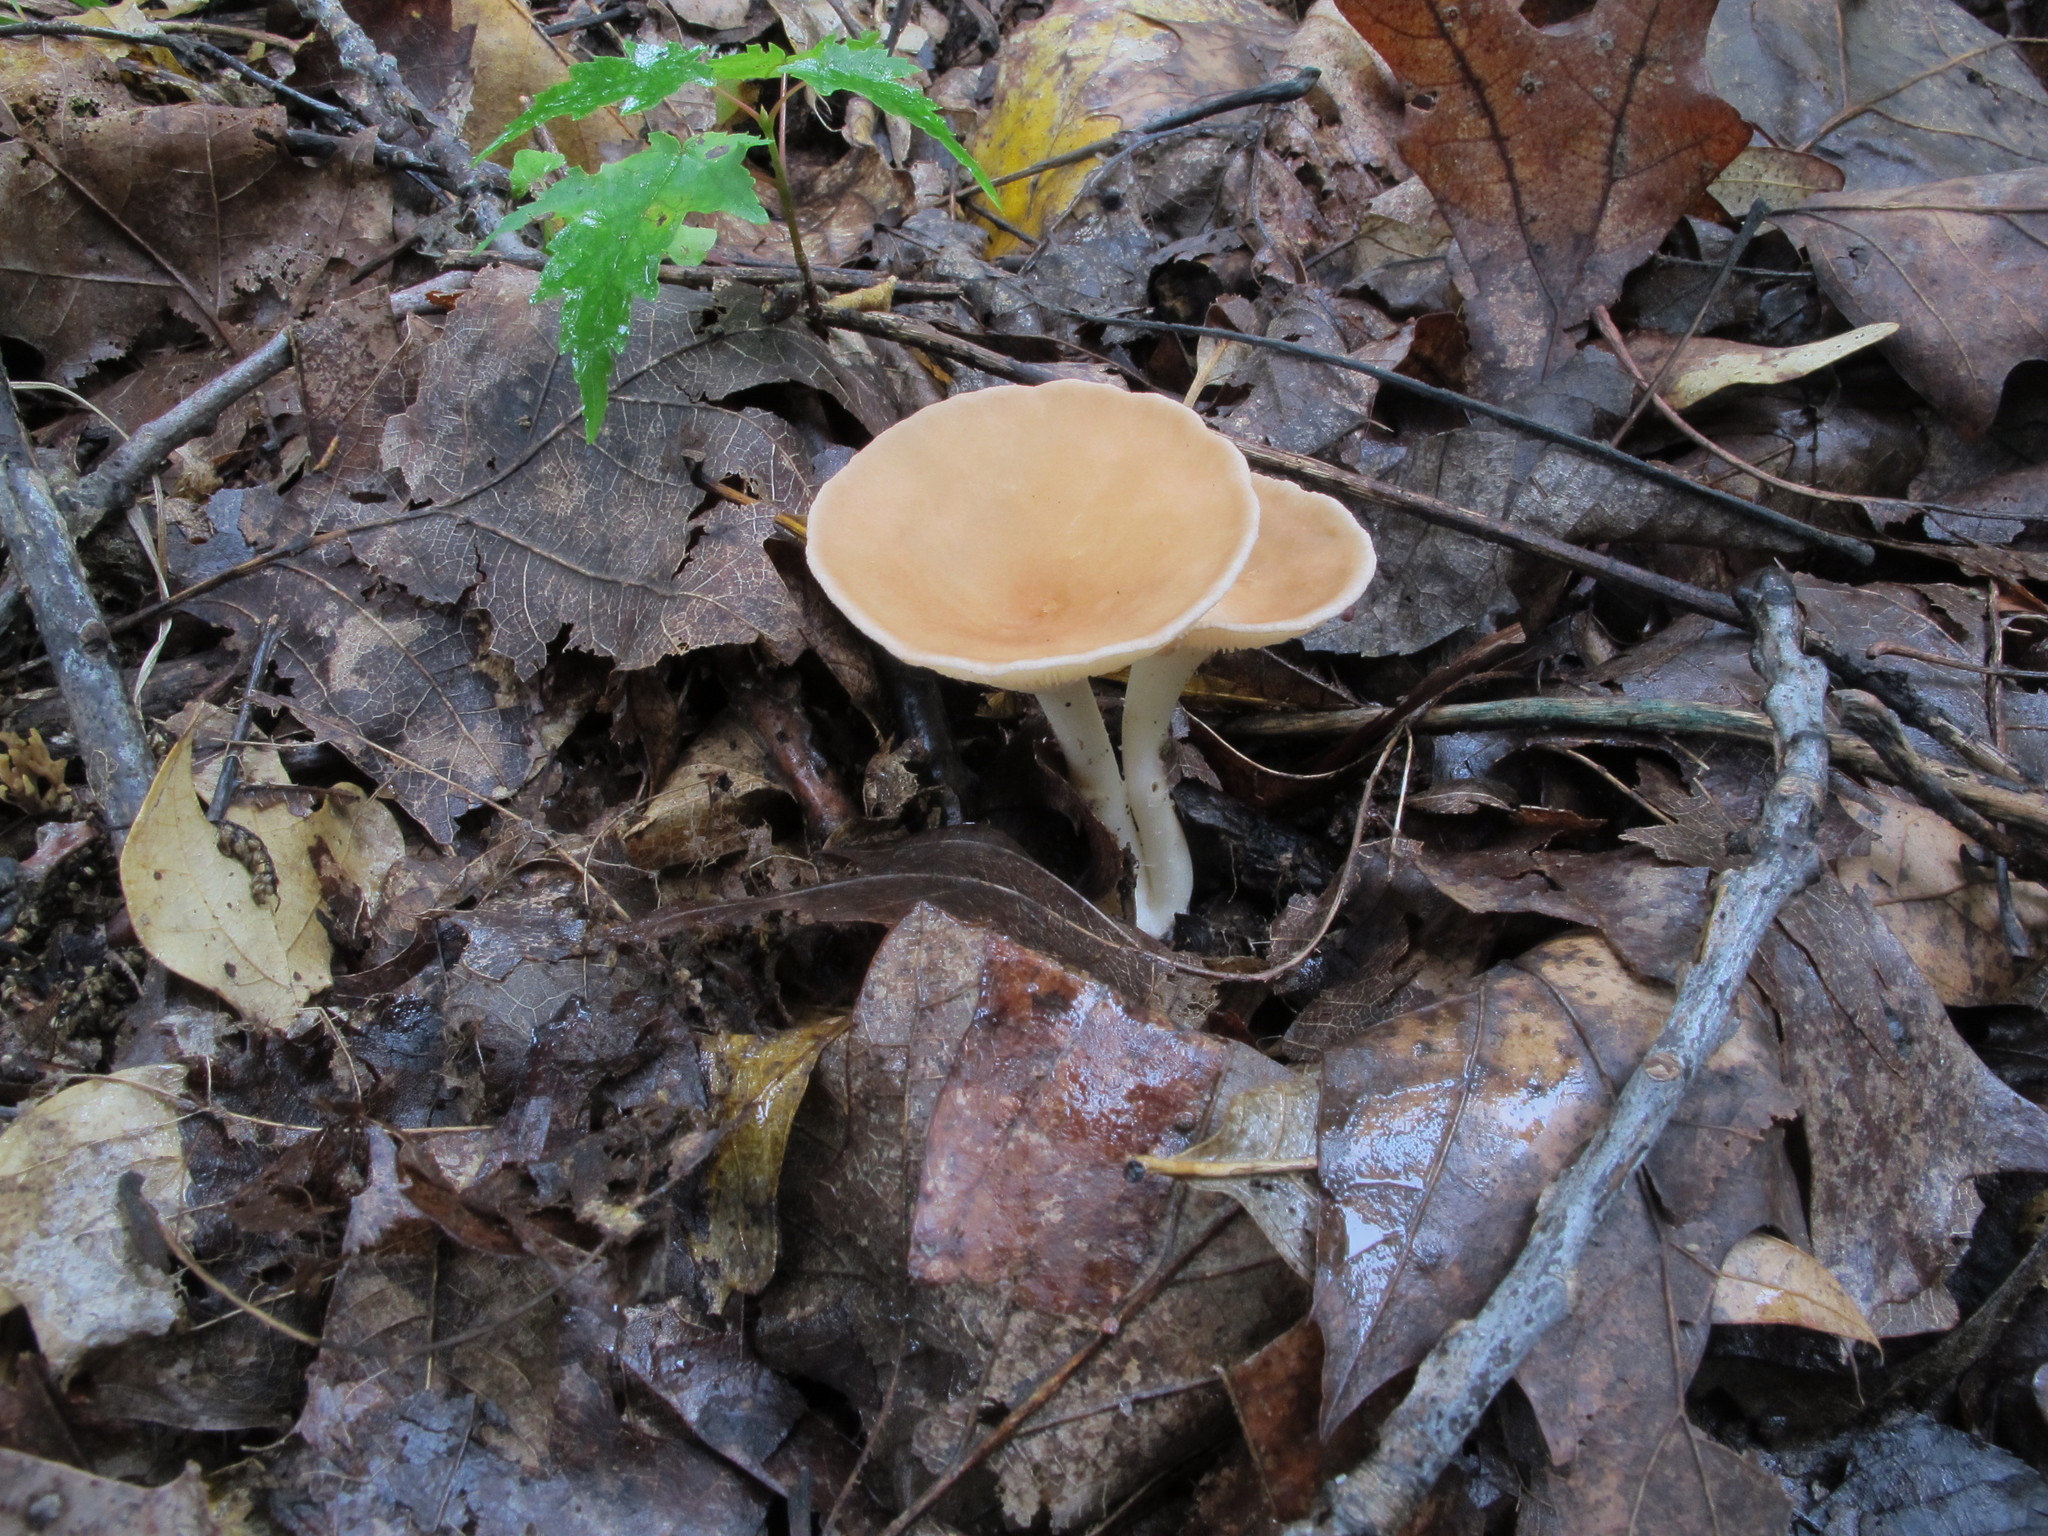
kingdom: Fungi
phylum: Basidiomycota
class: Agaricomycetes
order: Agaricales
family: Tricholomataceae
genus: Infundibulicybe
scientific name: Infundibulicybe gibba
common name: Common funnel
